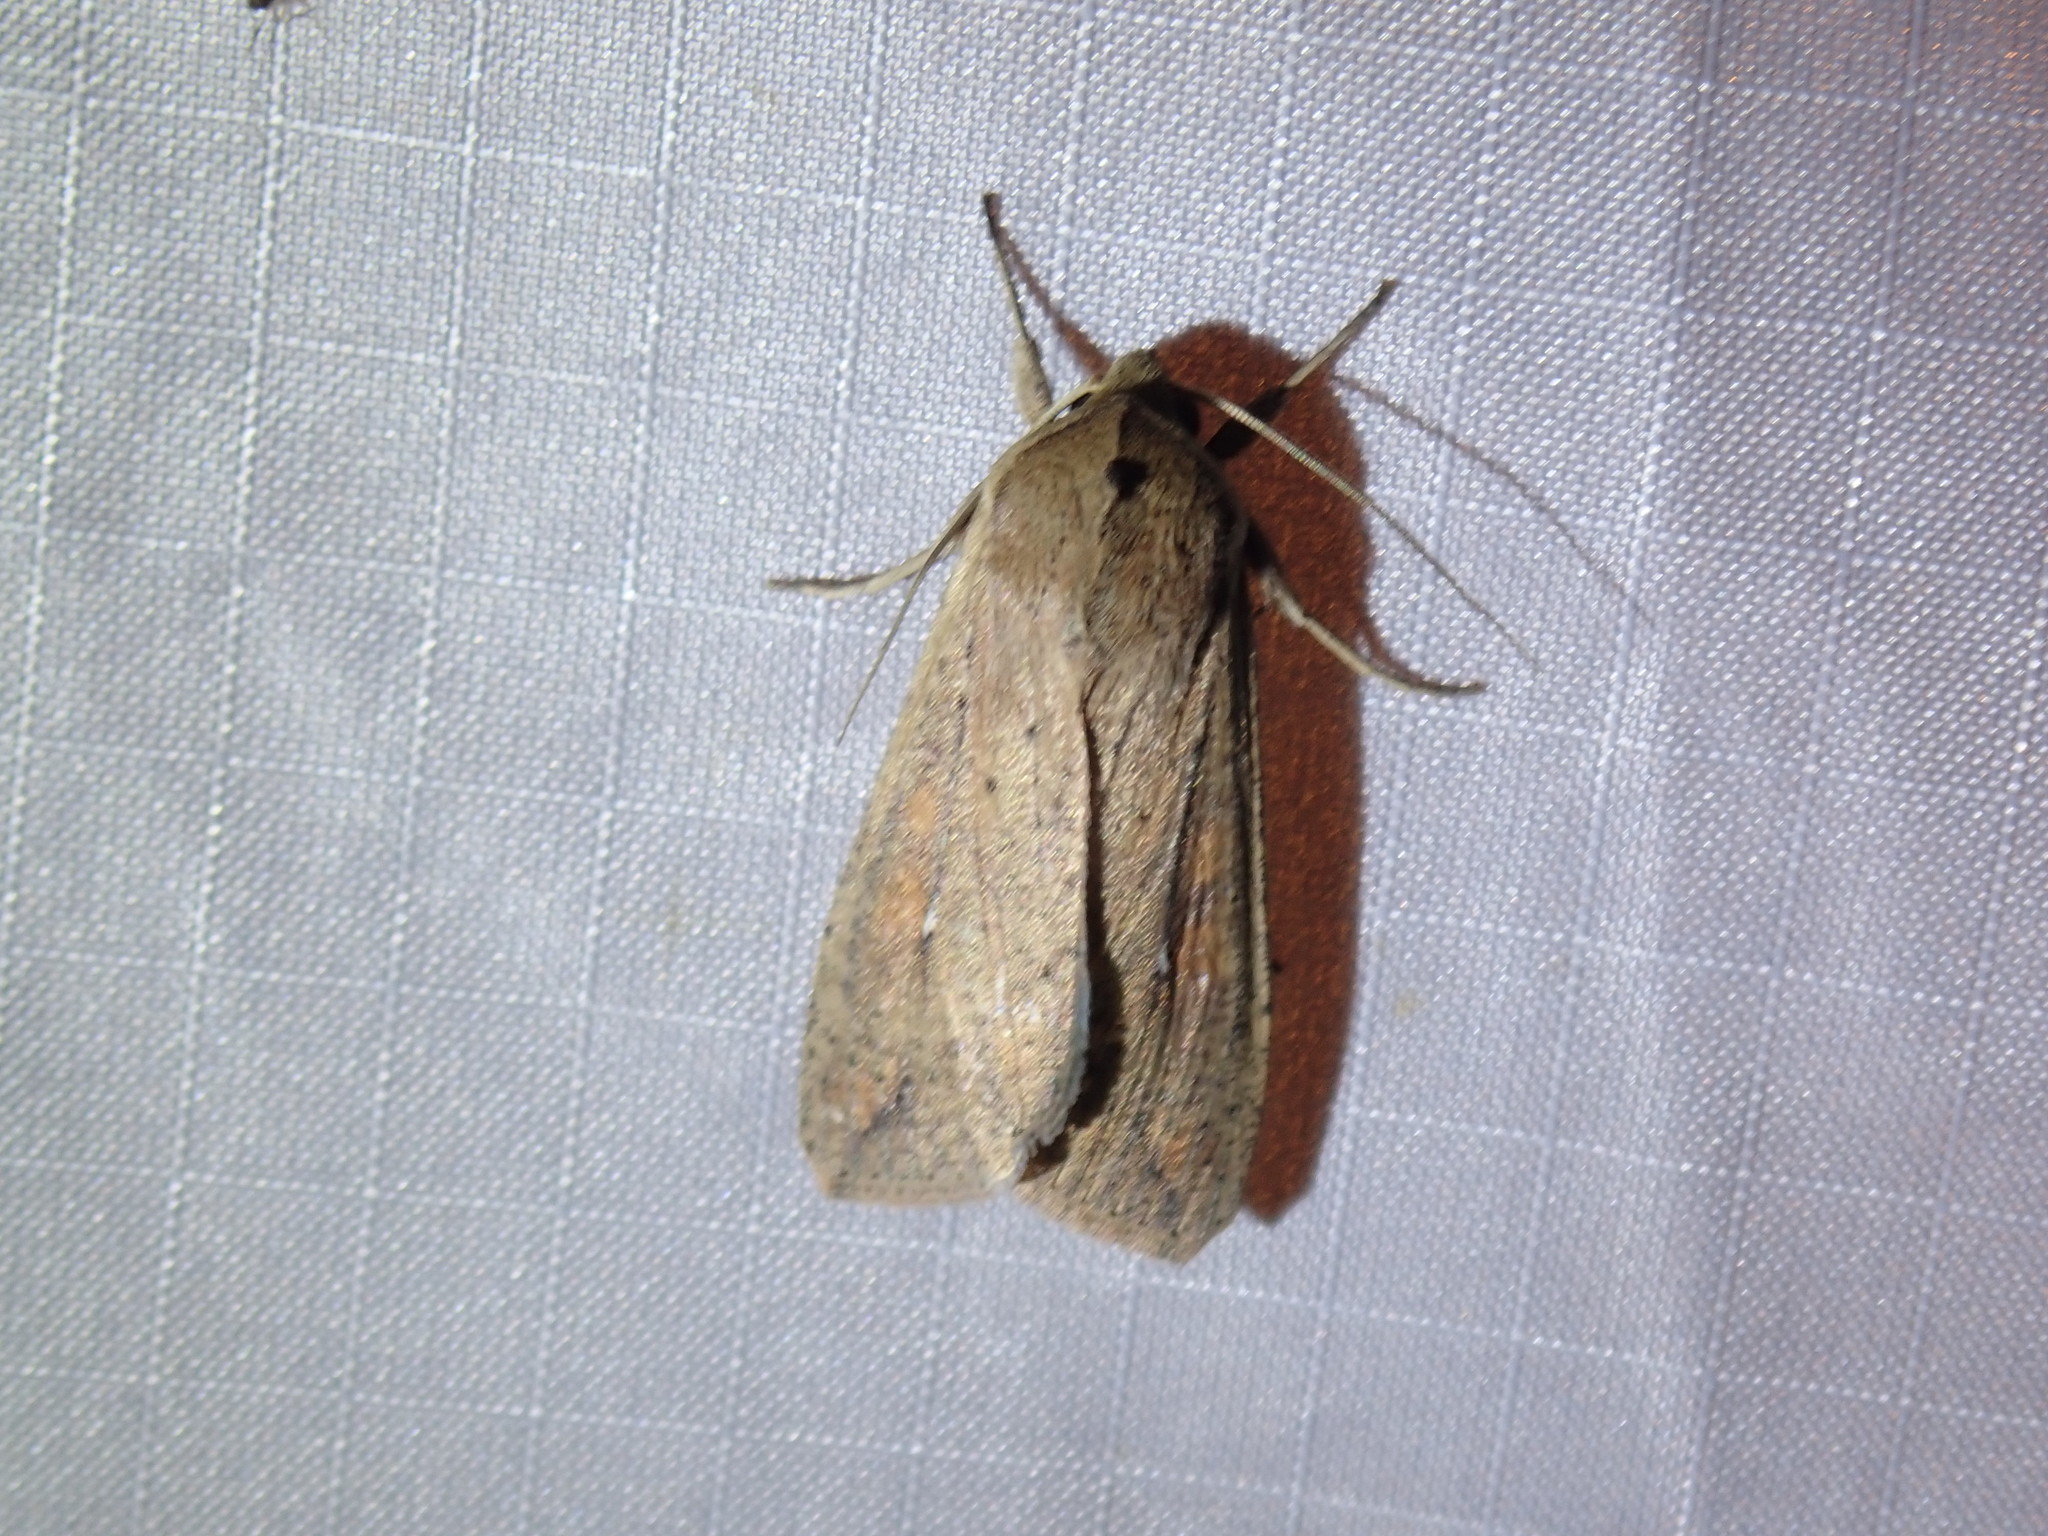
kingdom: Animalia
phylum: Arthropoda
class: Insecta
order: Lepidoptera
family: Noctuidae
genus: Mythimna
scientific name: Mythimna unipuncta
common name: White-speck
